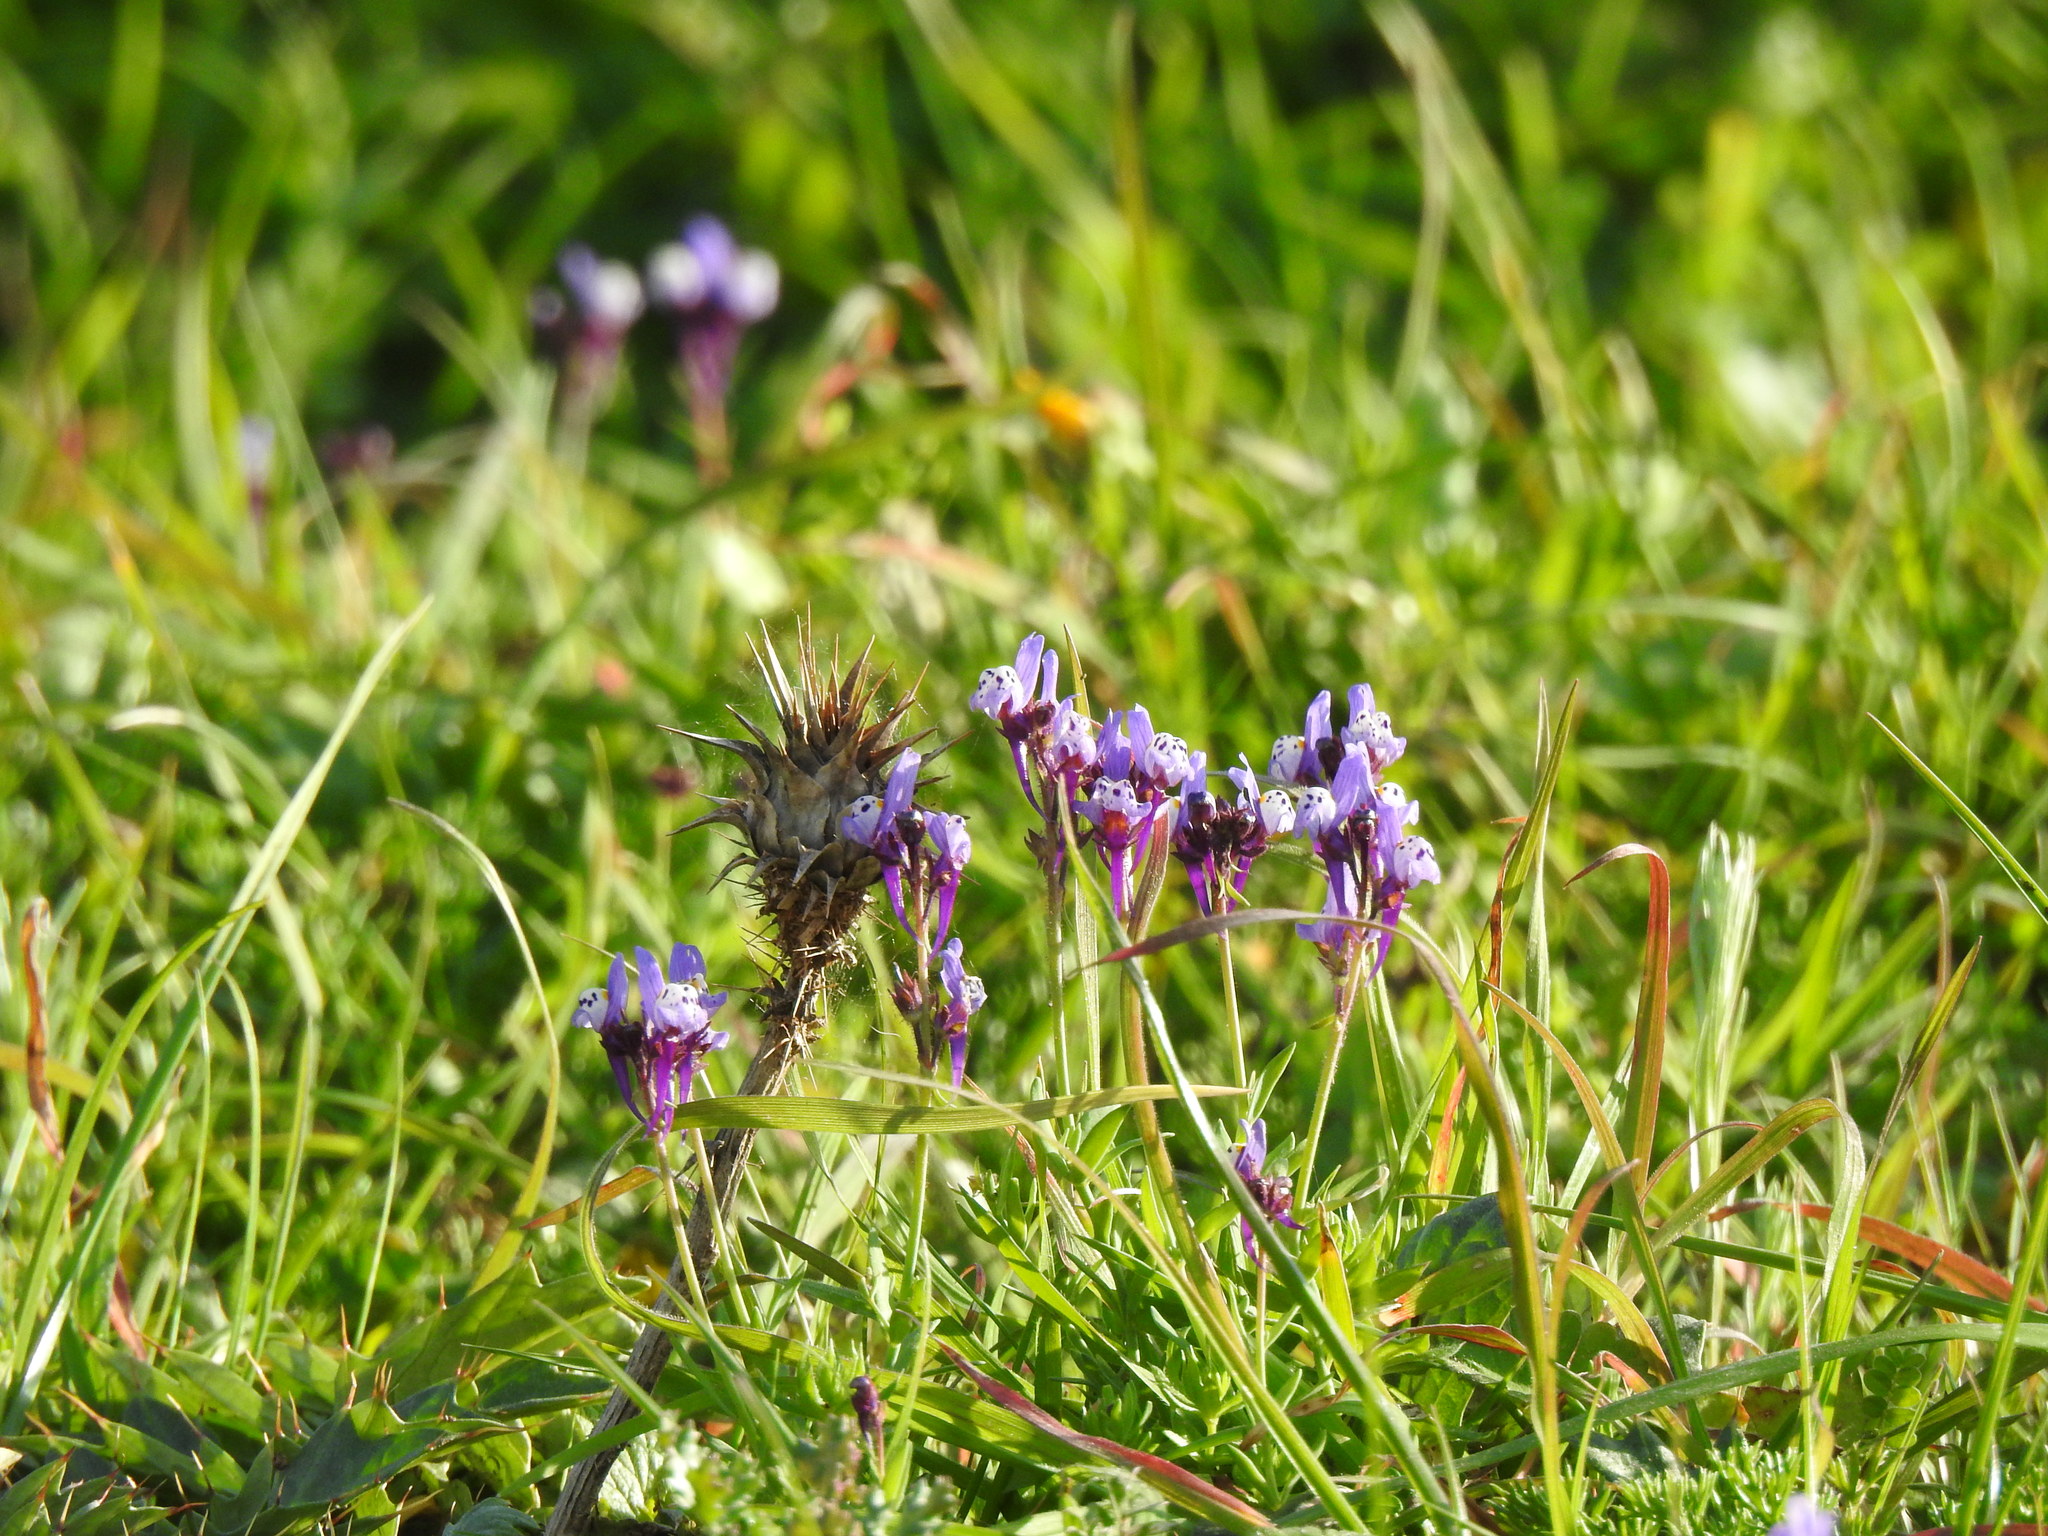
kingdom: Plantae
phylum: Tracheophyta
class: Magnoliopsida
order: Lamiales
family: Plantaginaceae
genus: Linaria
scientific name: Linaria amethystea
